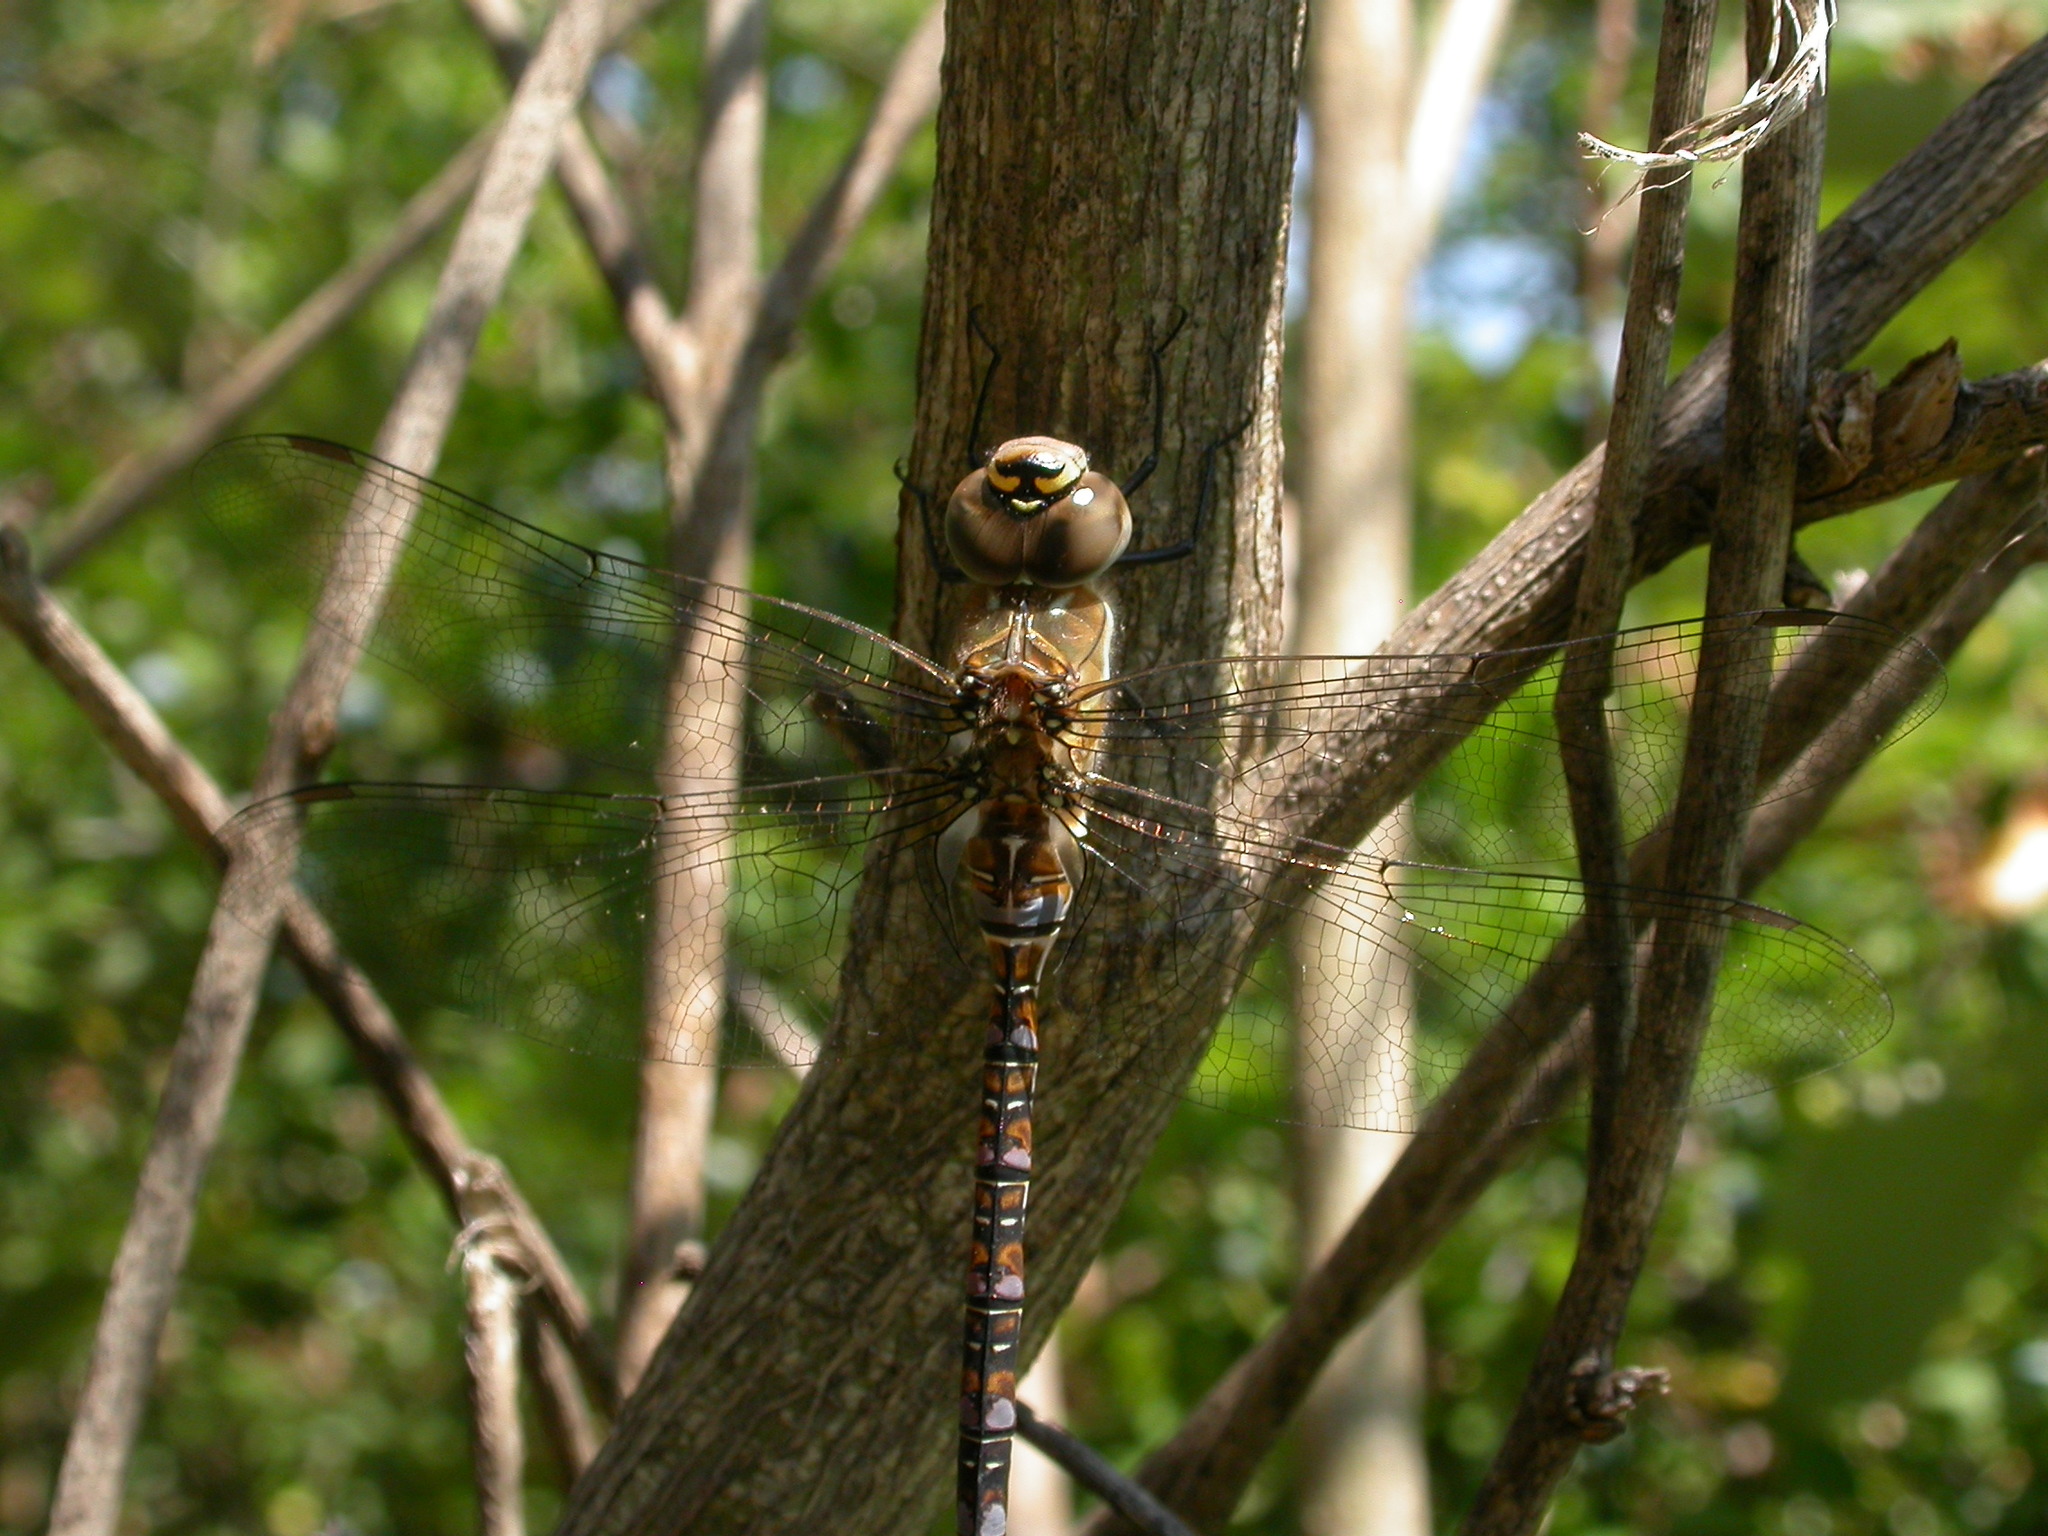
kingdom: Animalia
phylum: Arthropoda
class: Insecta
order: Odonata
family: Aeshnidae
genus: Aeshna
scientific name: Aeshna mixta
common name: Migrant hawker
